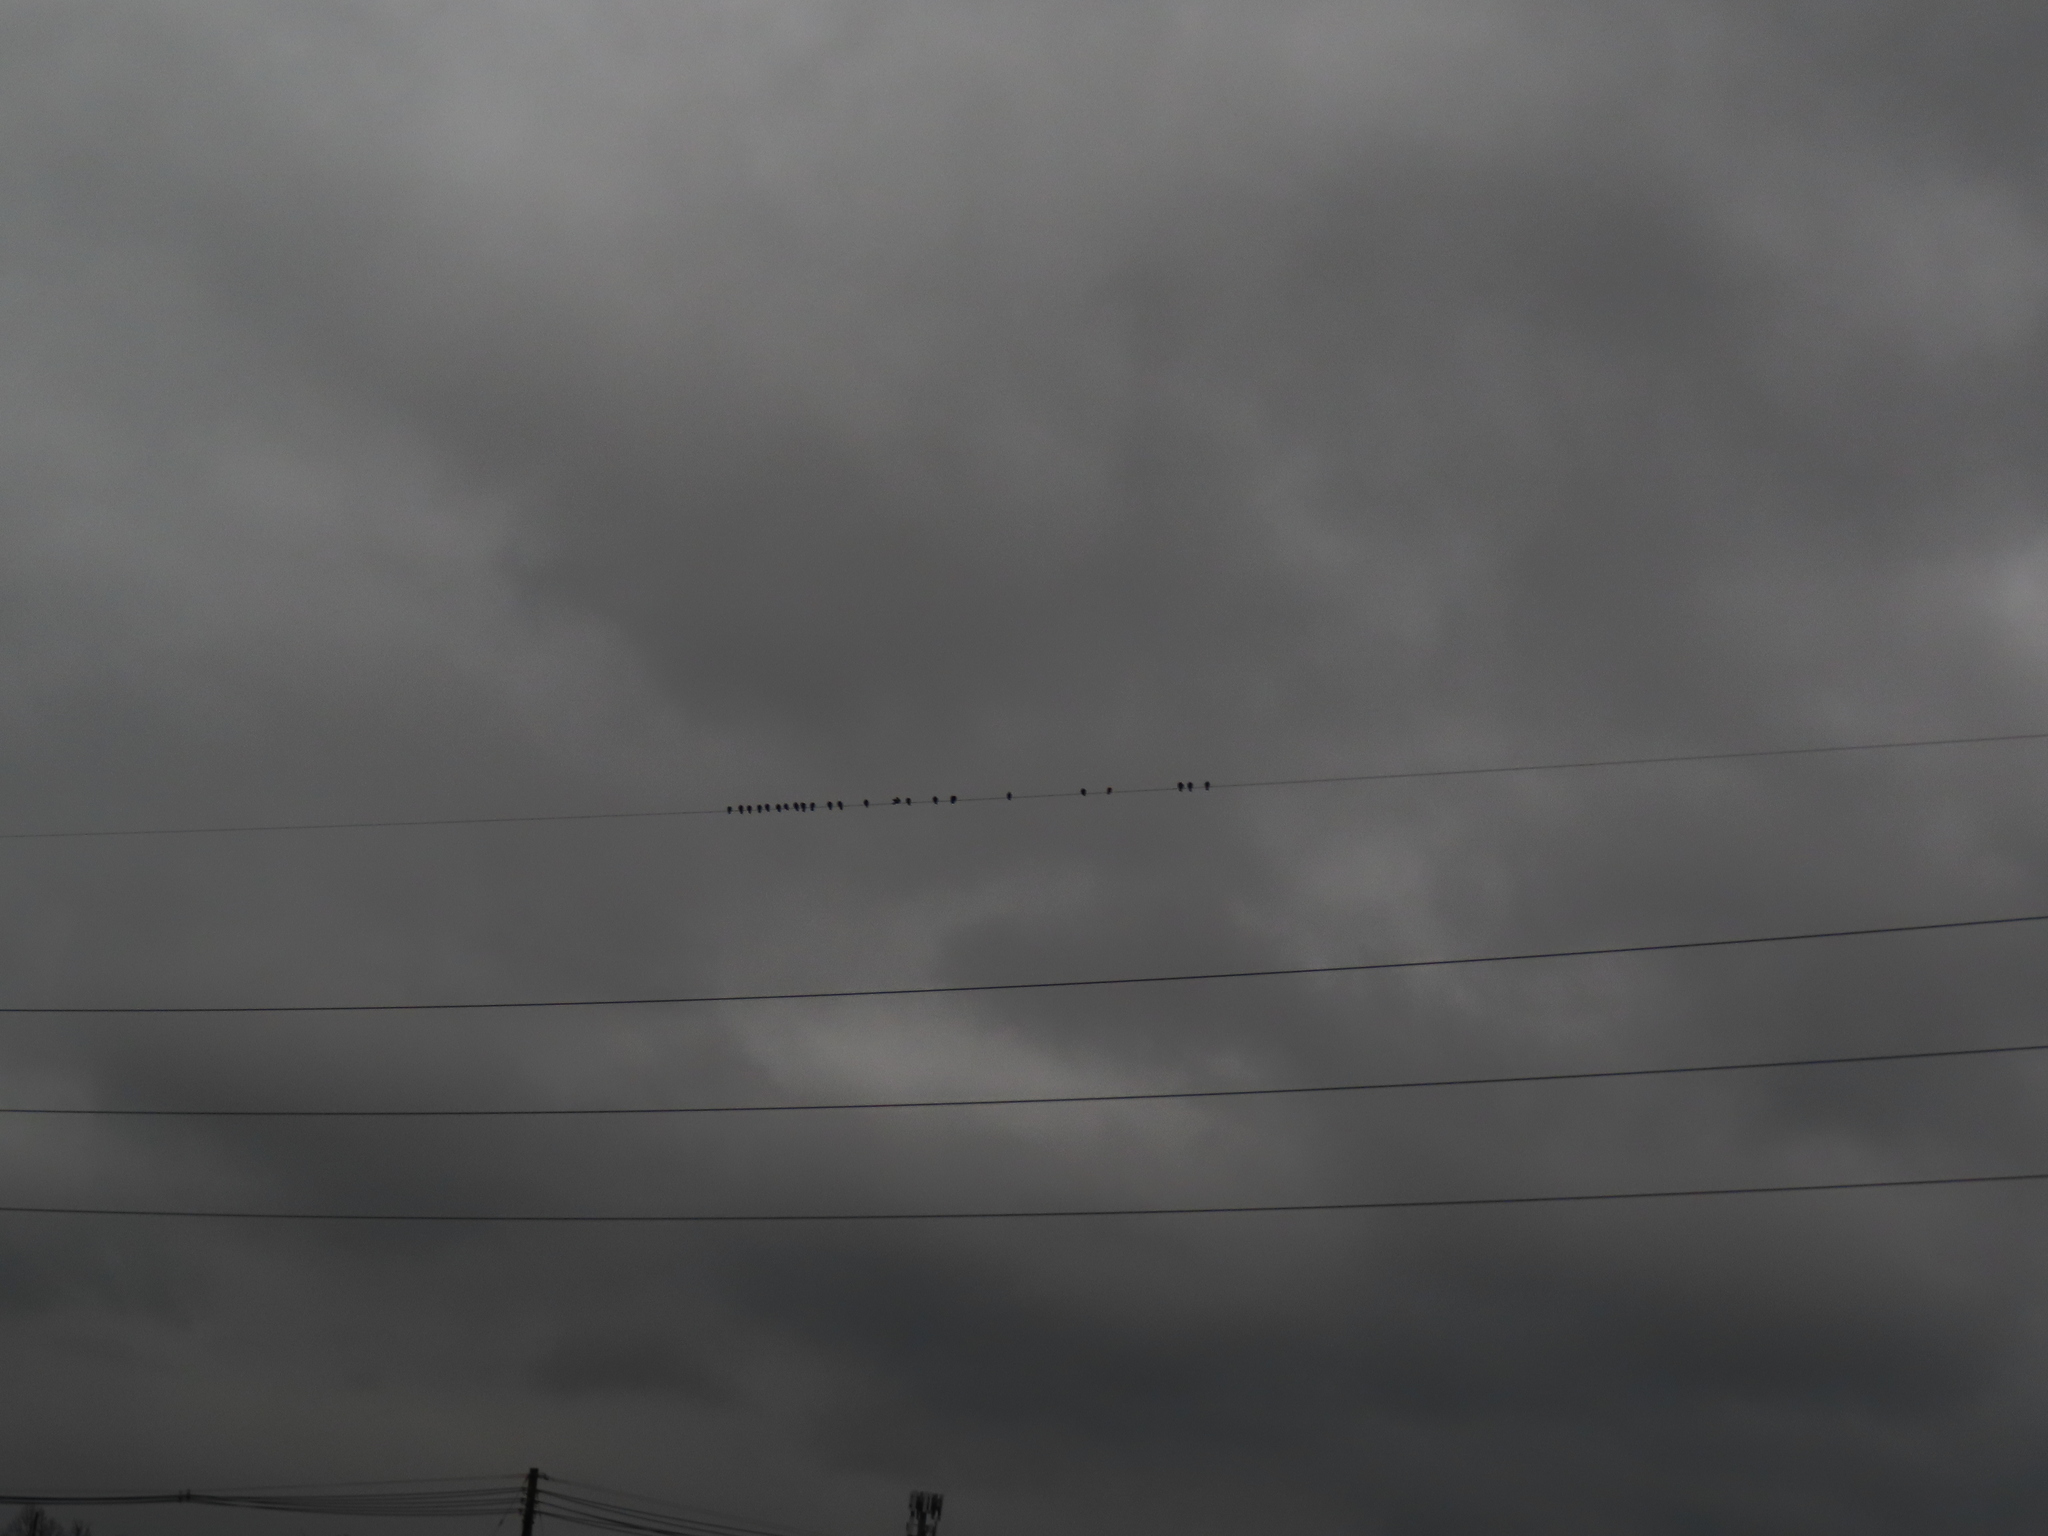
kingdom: Animalia
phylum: Chordata
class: Aves
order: Columbiformes
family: Columbidae
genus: Columba
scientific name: Columba livia
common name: Rock pigeon
